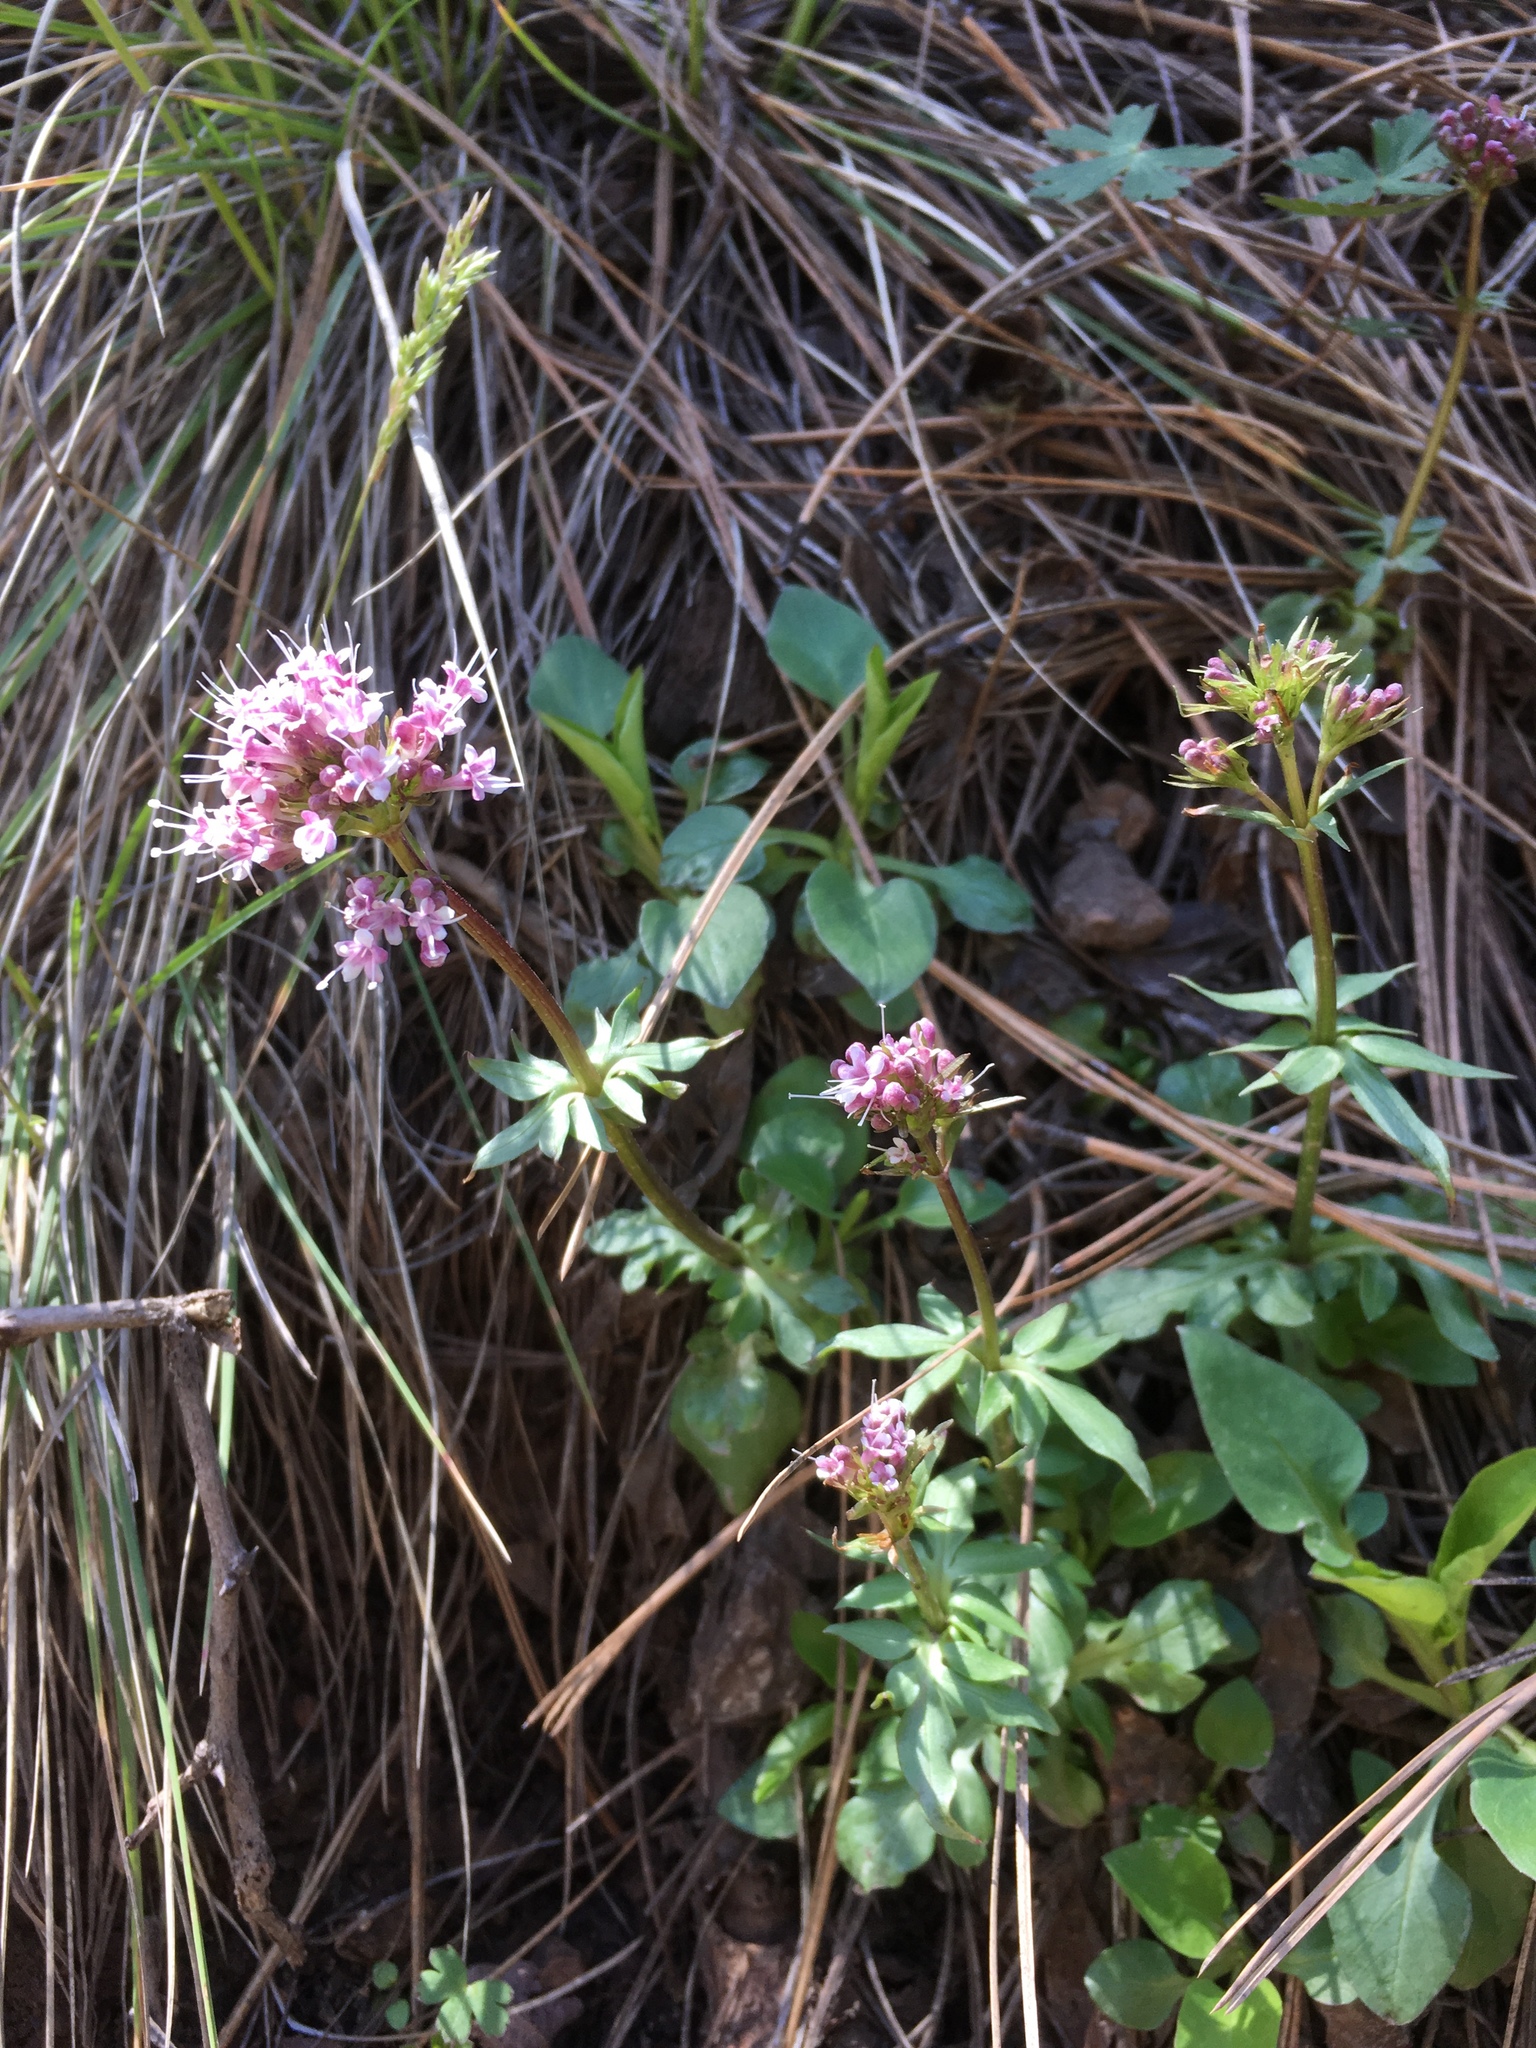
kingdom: Plantae
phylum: Tracheophyta
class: Magnoliopsida
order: Dipsacales
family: Caprifoliaceae
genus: Valeriana
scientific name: Valeriana arizonica
